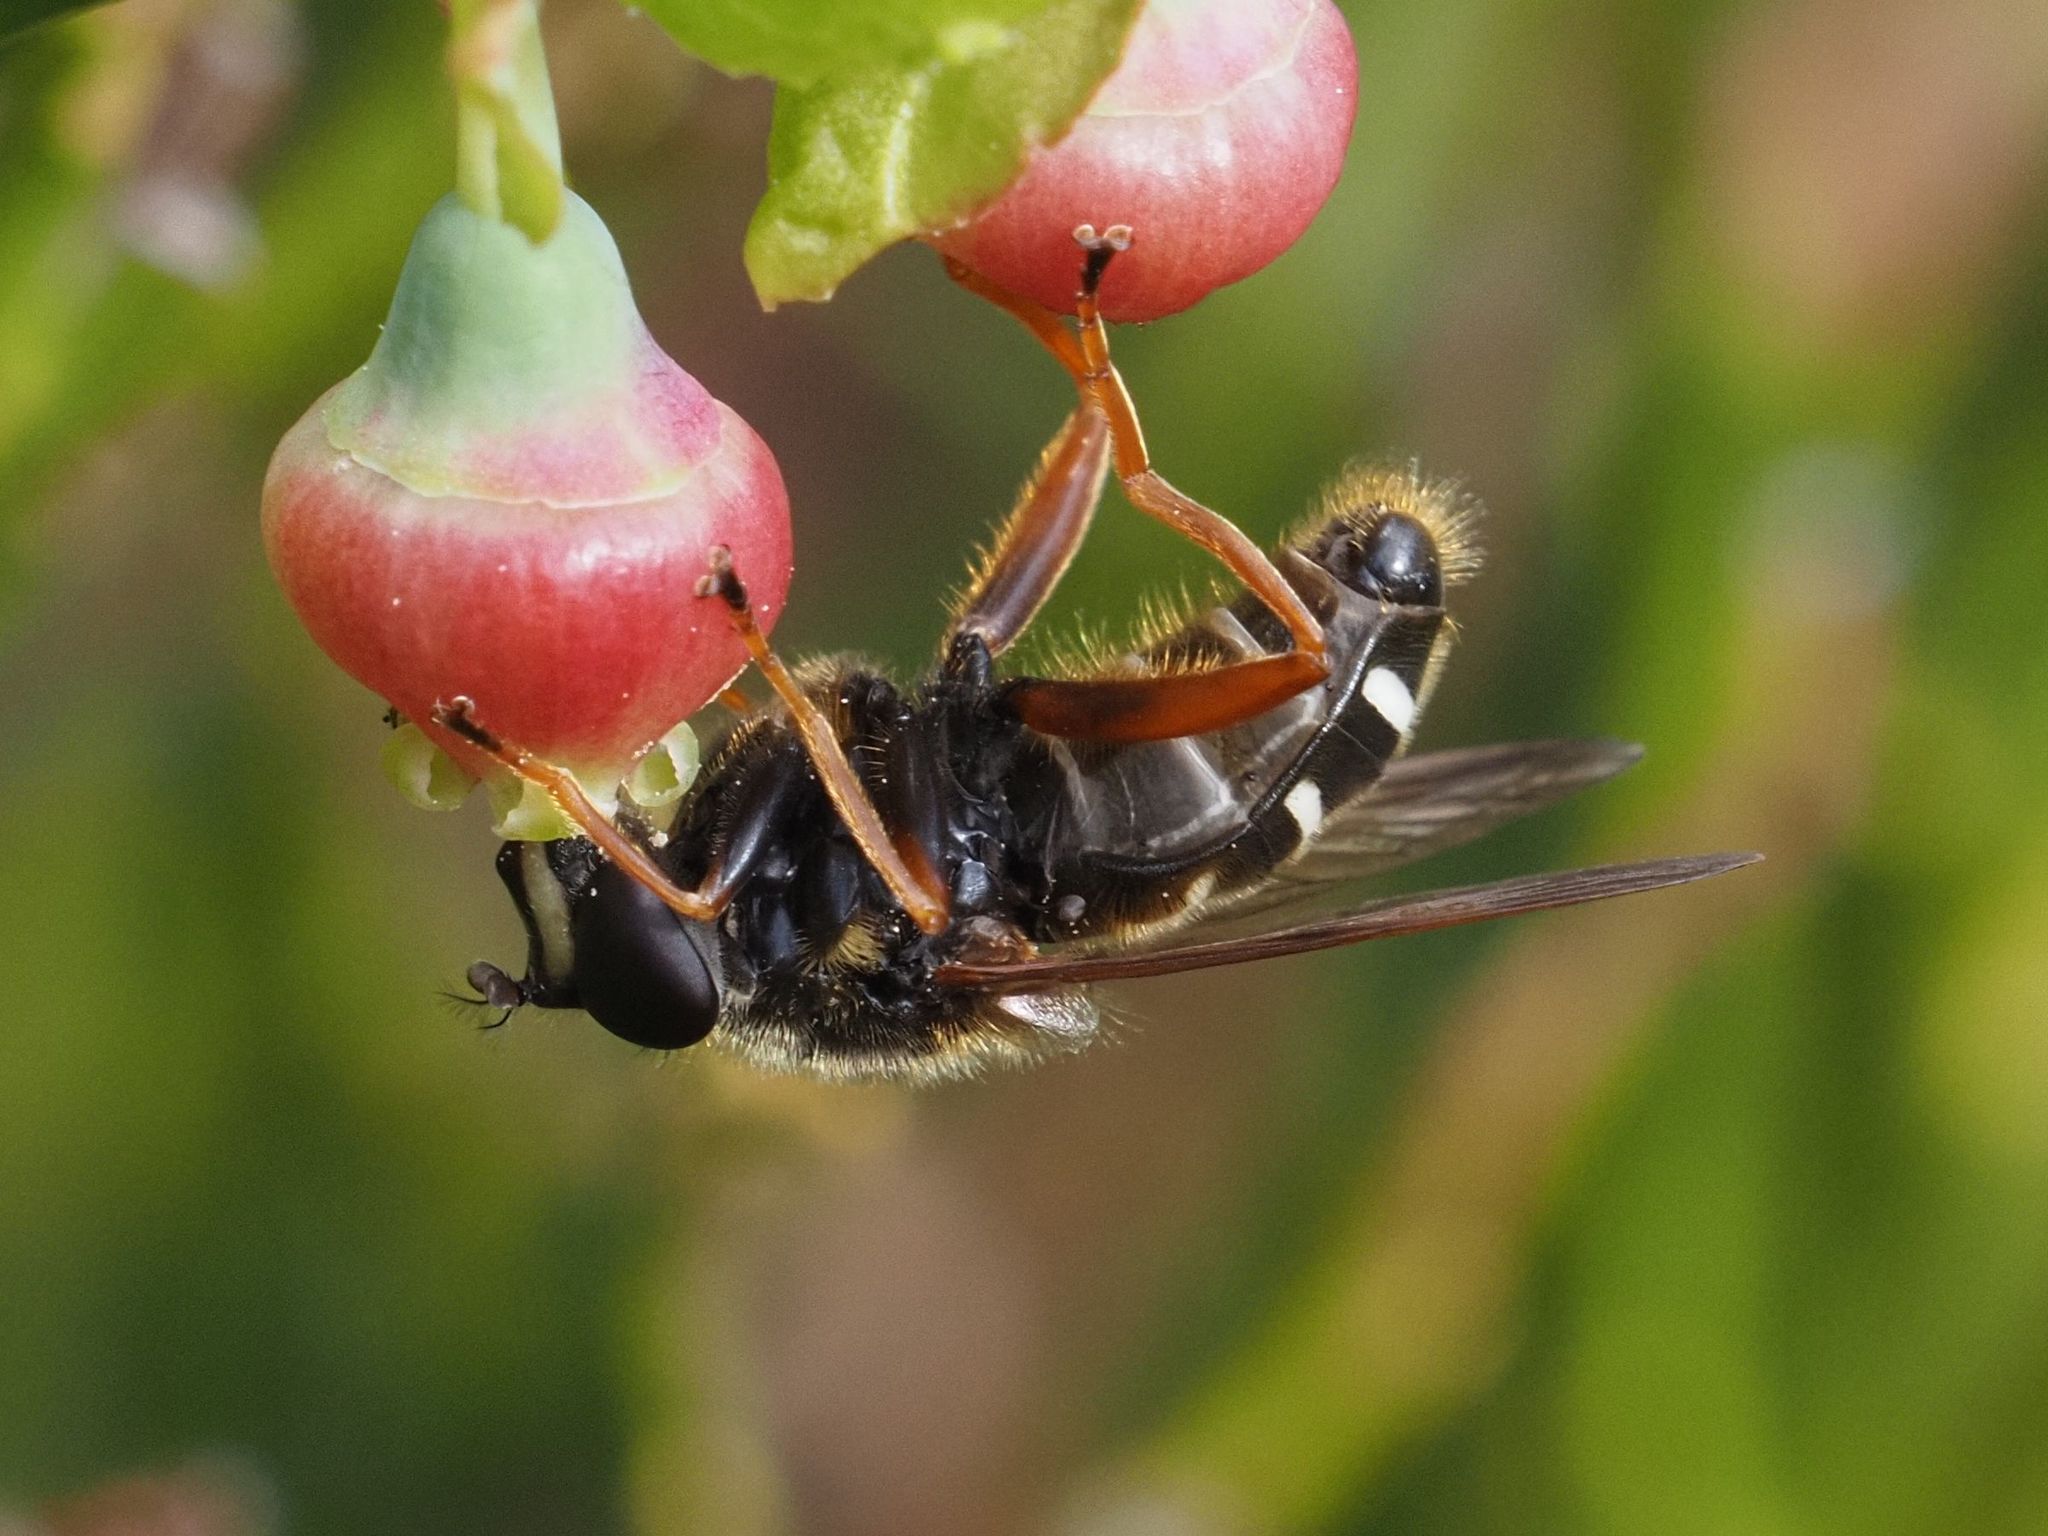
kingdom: Animalia
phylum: Arthropoda
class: Insecta
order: Diptera
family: Syrphidae
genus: Sericomyia
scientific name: Sericomyia lappona
